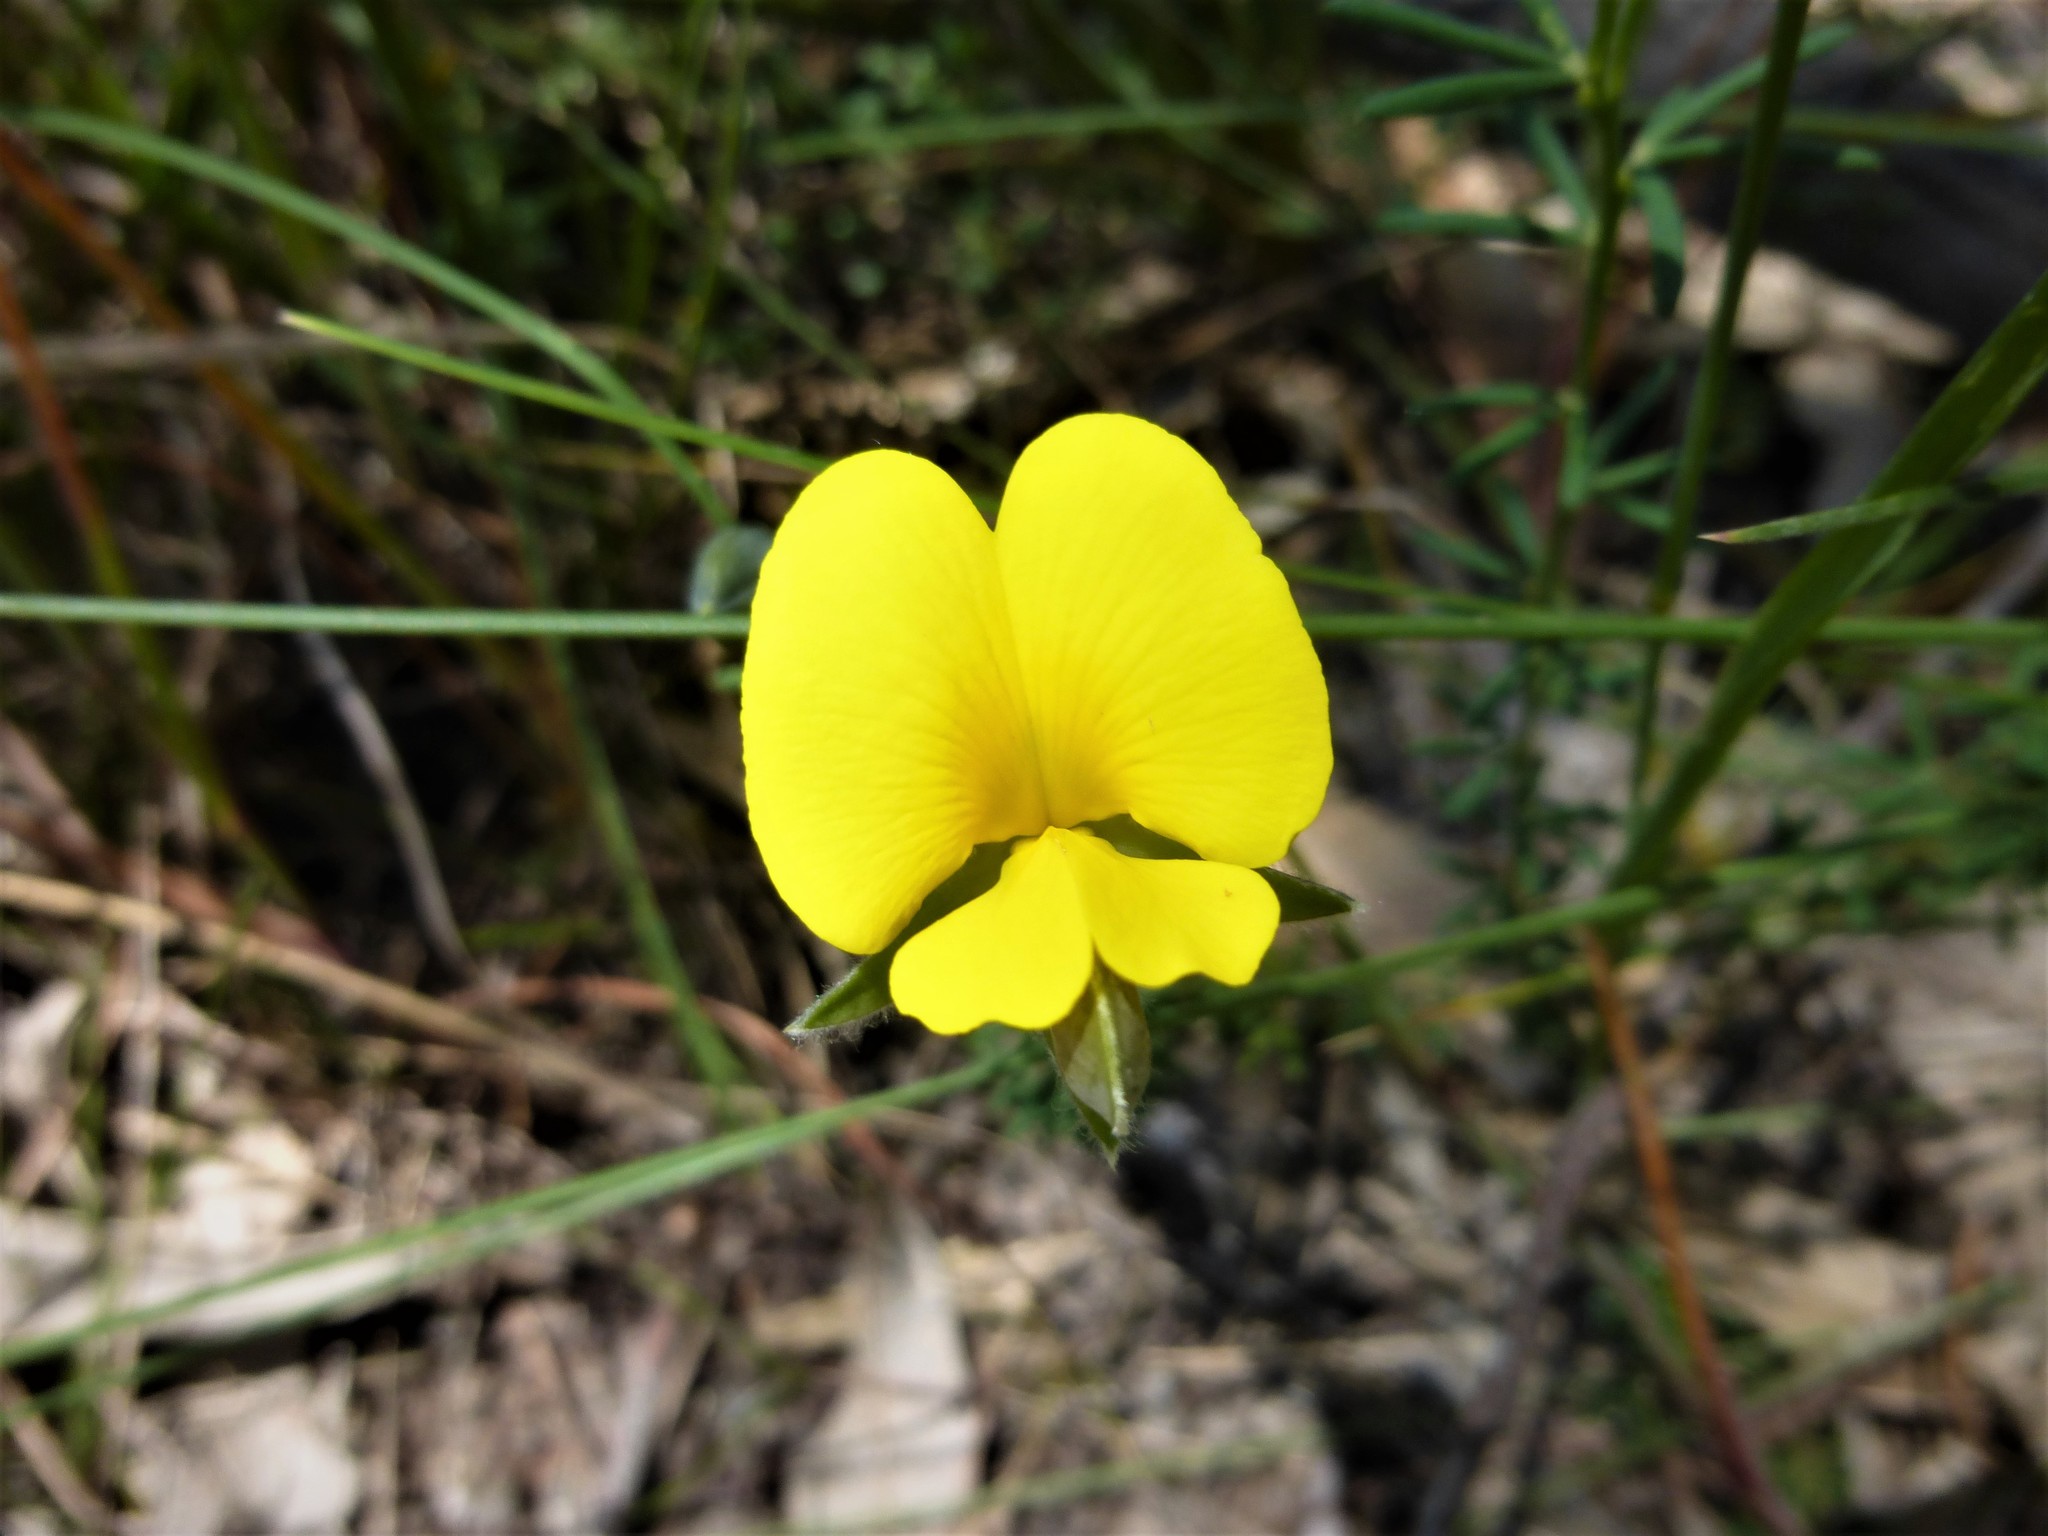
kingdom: Plantae
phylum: Tracheophyta
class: Magnoliopsida
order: Fabales
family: Fabaceae
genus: Gompholobium
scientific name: Gompholobium huegelii
